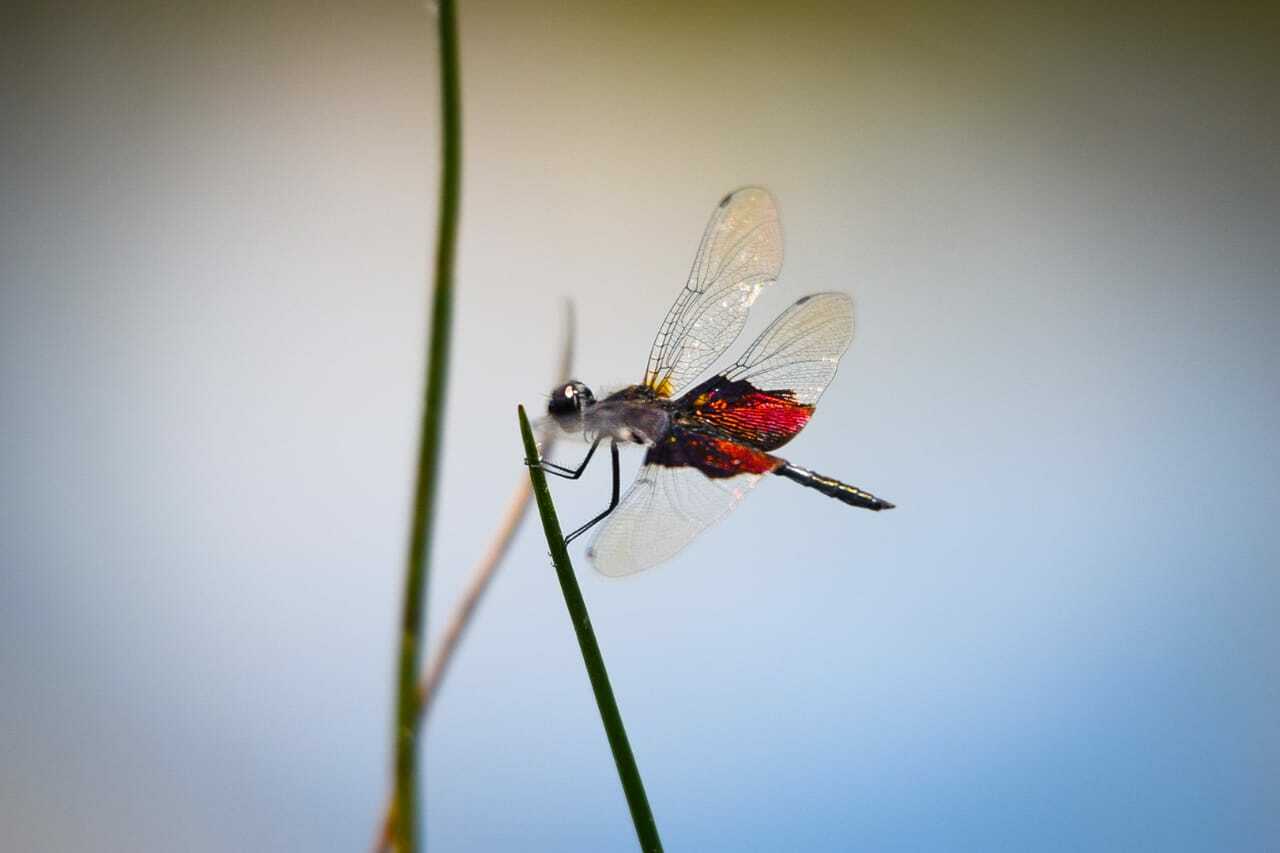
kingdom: Animalia
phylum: Arthropoda
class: Insecta
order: Odonata
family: Libellulidae
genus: Rhyothemis
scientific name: Rhyothemis semihyalina
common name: Phantom flutterer
